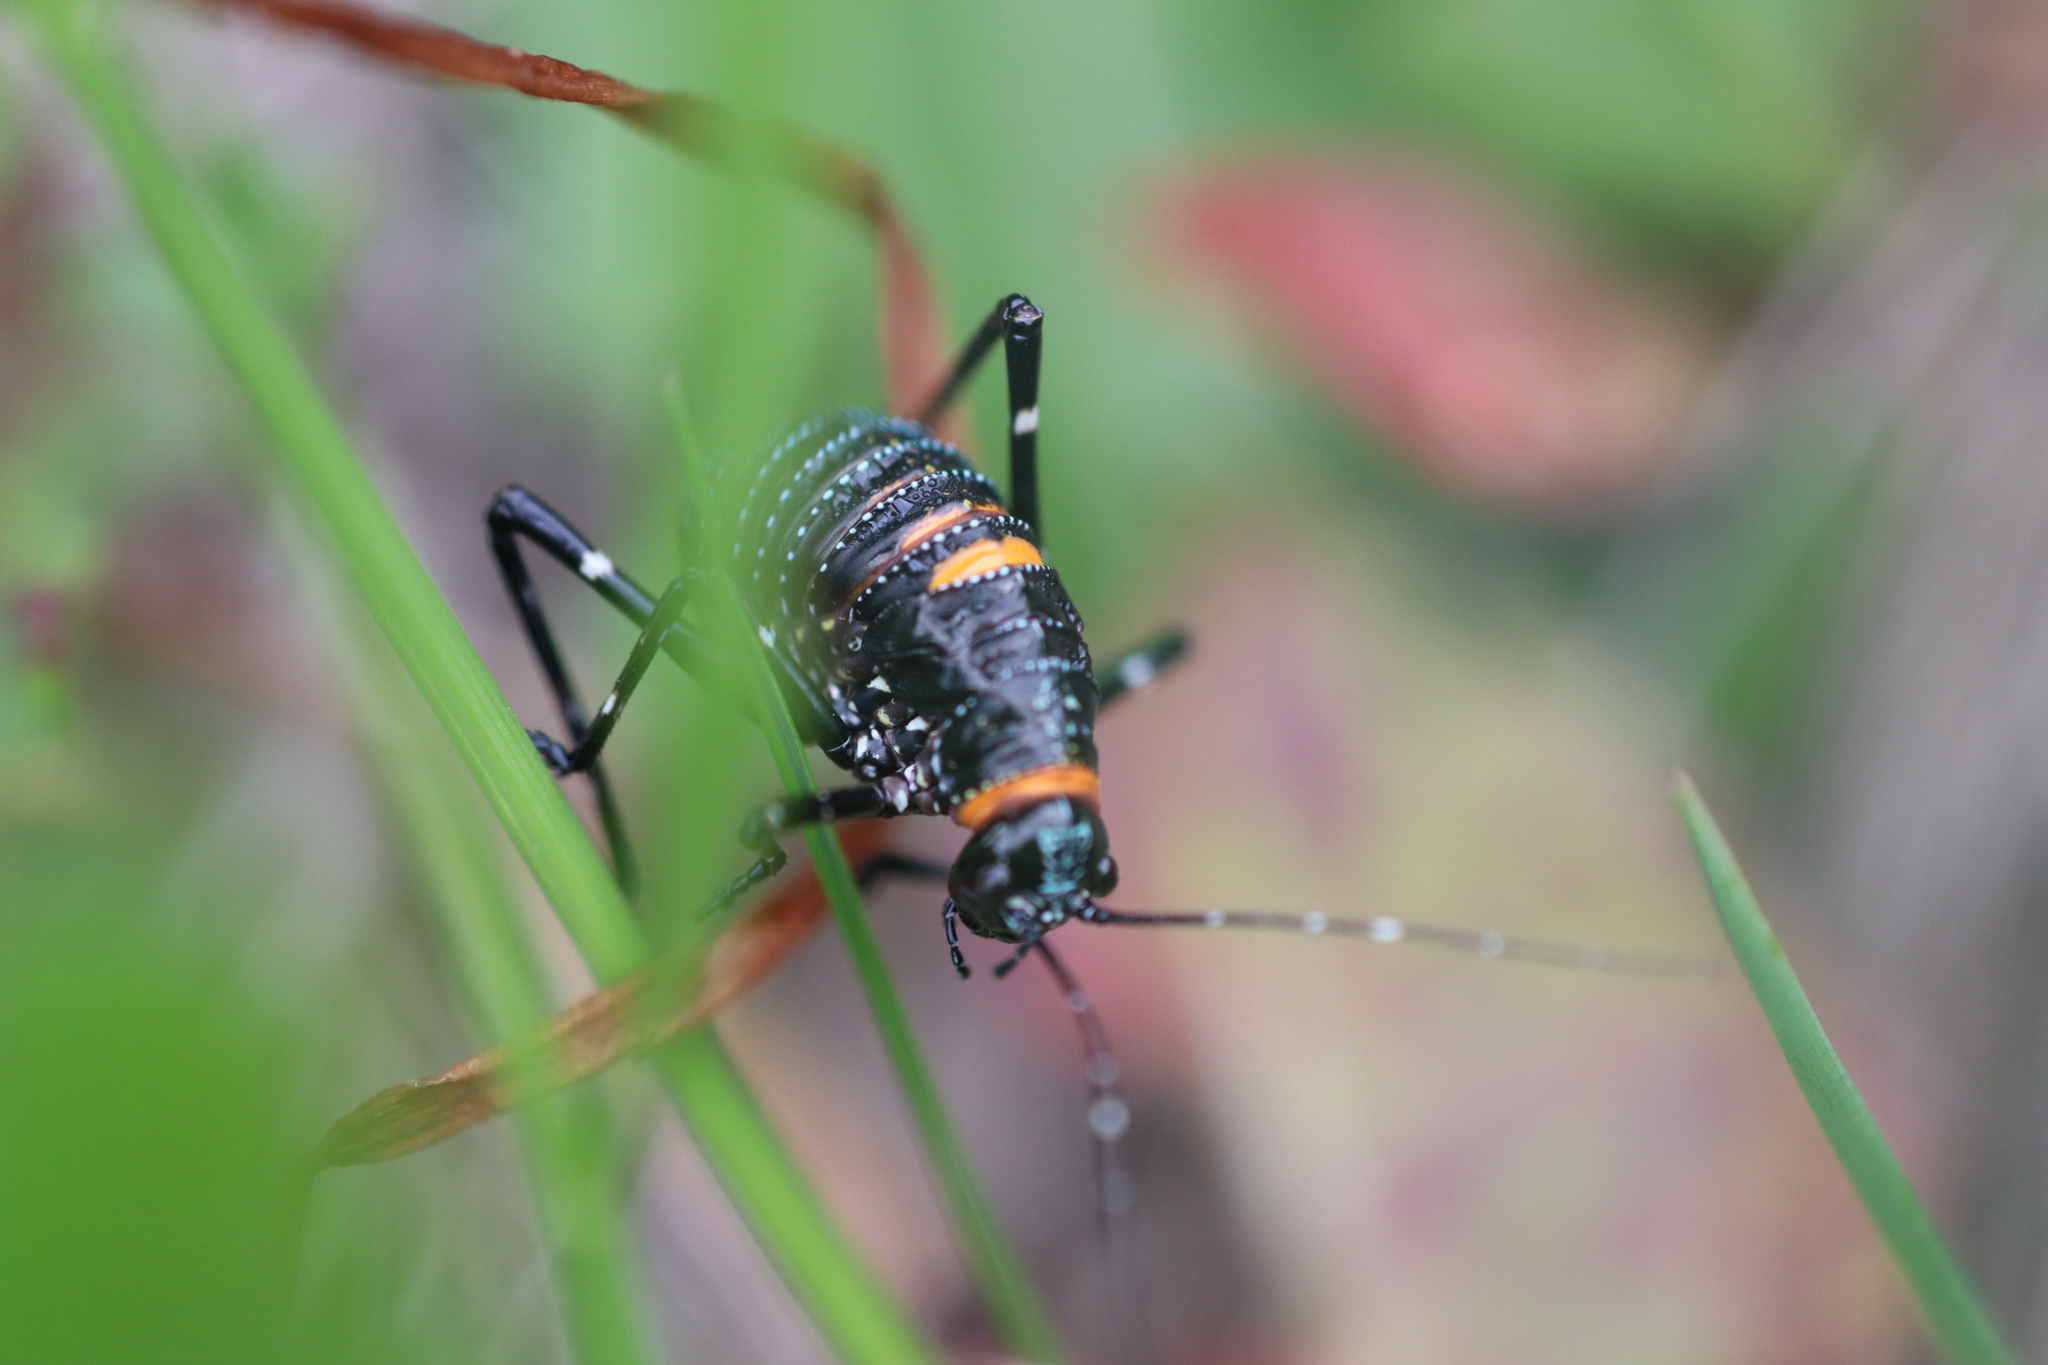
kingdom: Animalia
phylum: Arthropoda
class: Insecta
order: Orthoptera
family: Tettigoniidae
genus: Acripeza
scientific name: Acripeza reticulata
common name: Mountain katydid
